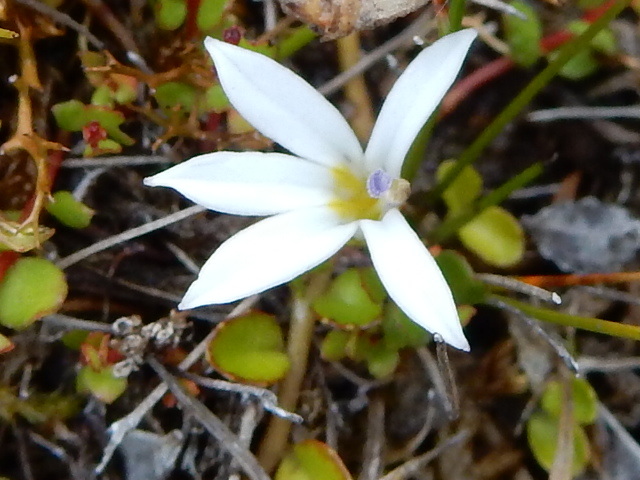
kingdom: Plantae
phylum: Tracheophyta
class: Magnoliopsida
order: Asterales
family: Campanulaceae
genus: Lobelia
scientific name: Lobelia angulata
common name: Lawn lobelia
